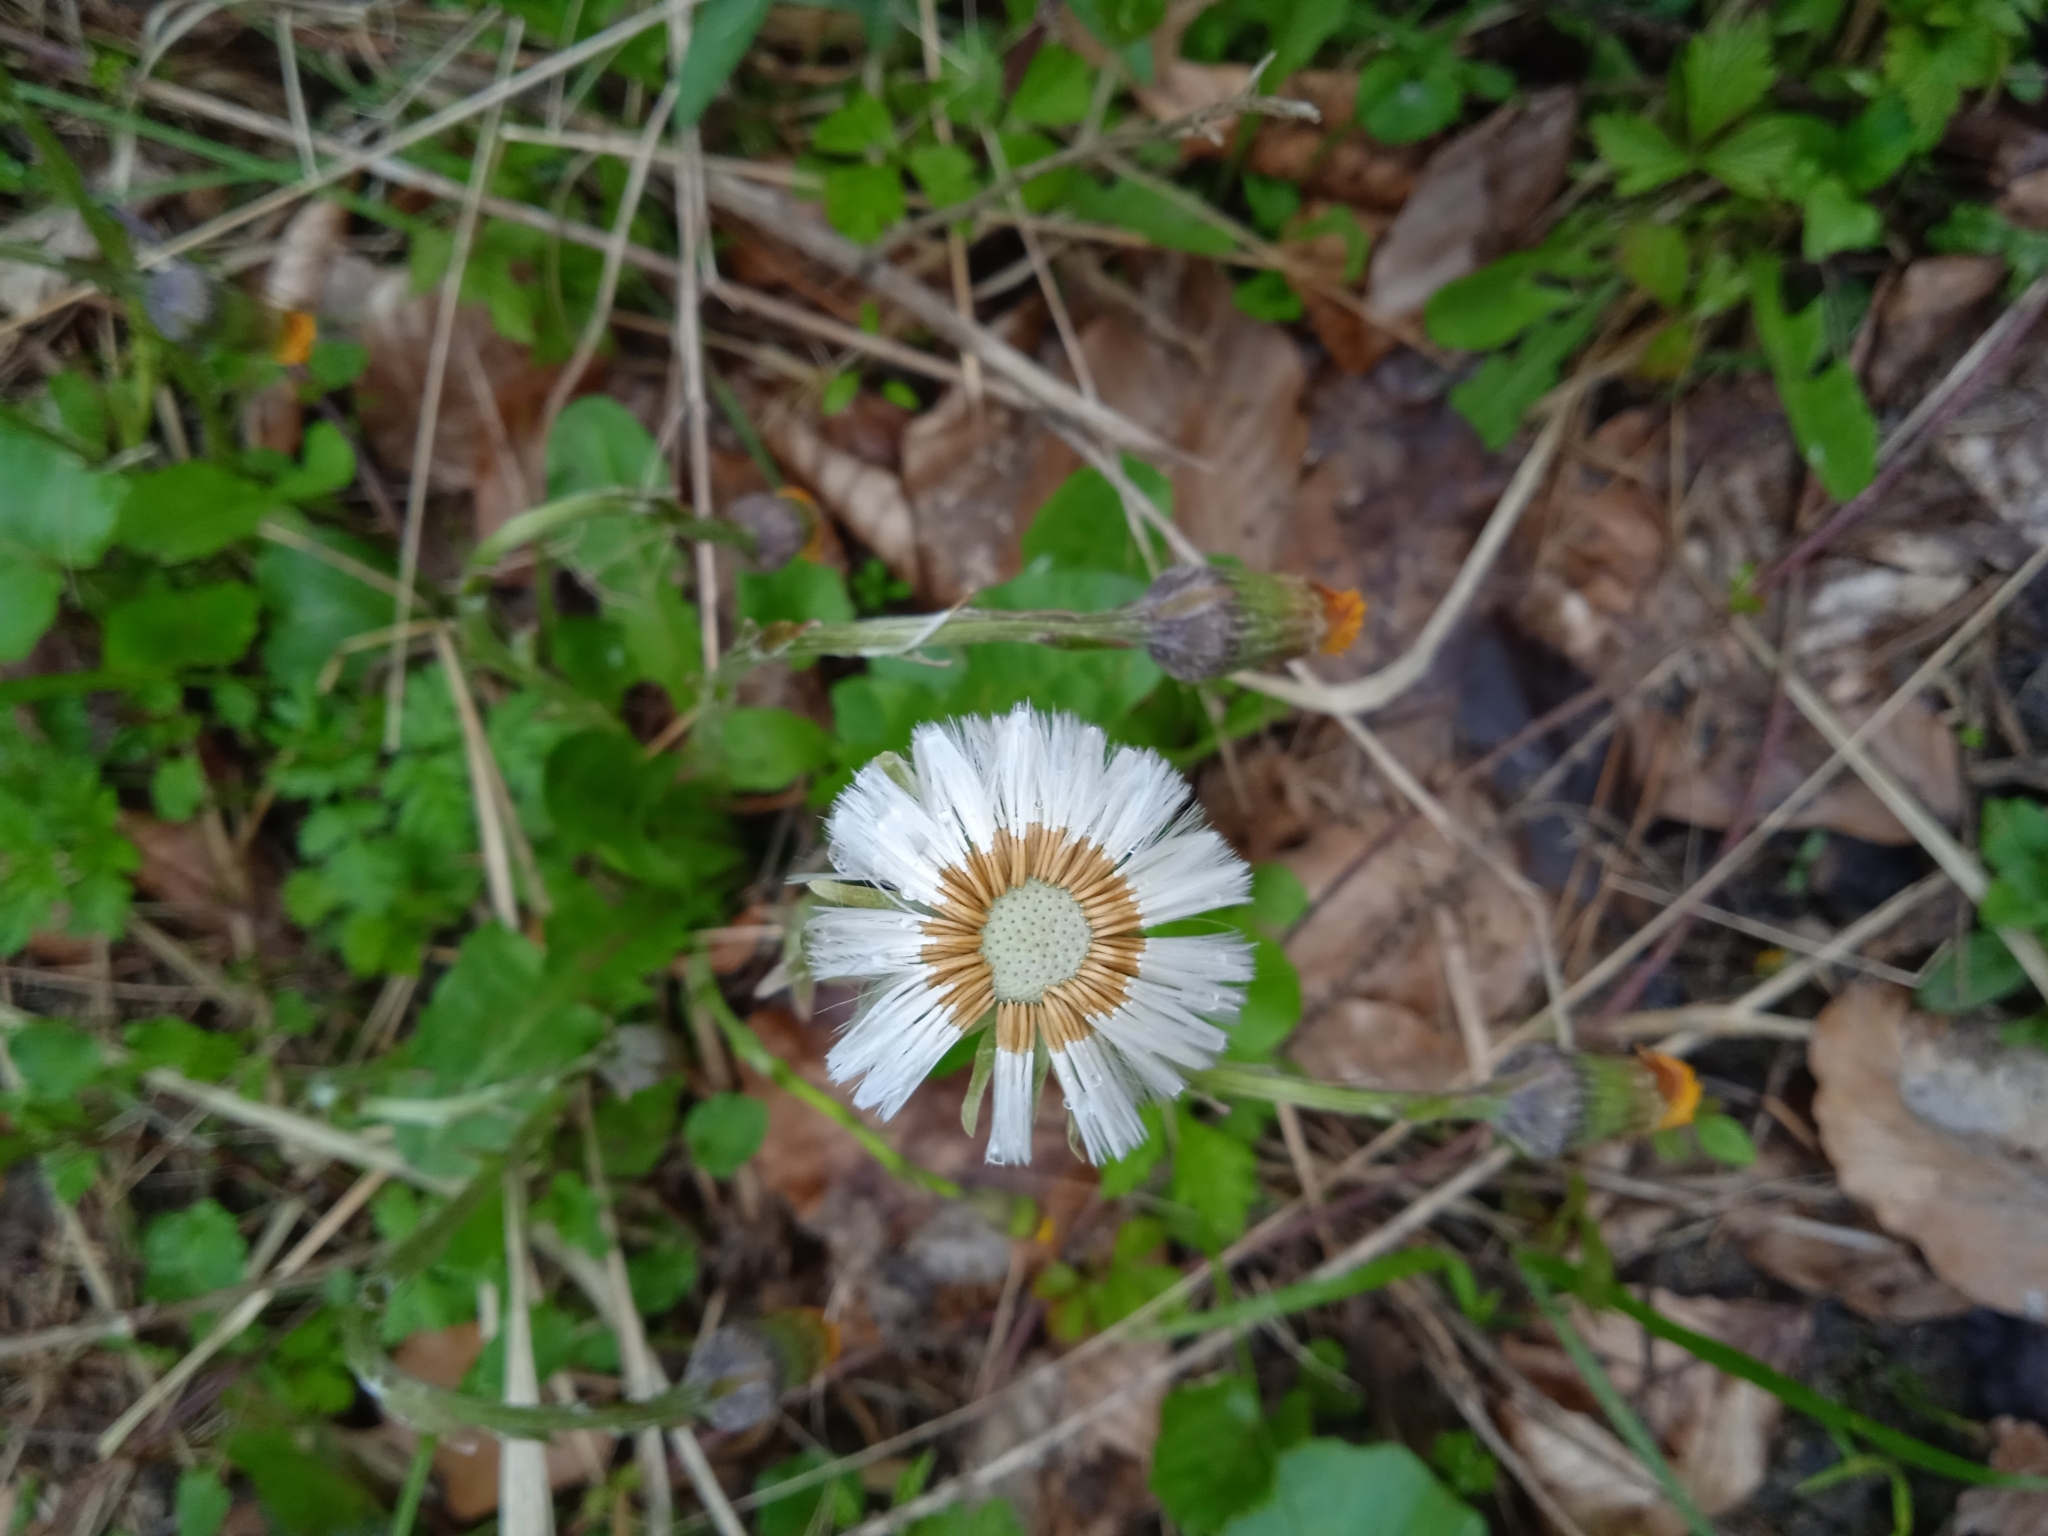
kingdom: Plantae
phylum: Tracheophyta
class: Magnoliopsida
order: Asterales
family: Asteraceae
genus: Tussilago
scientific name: Tussilago farfara
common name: Coltsfoot
